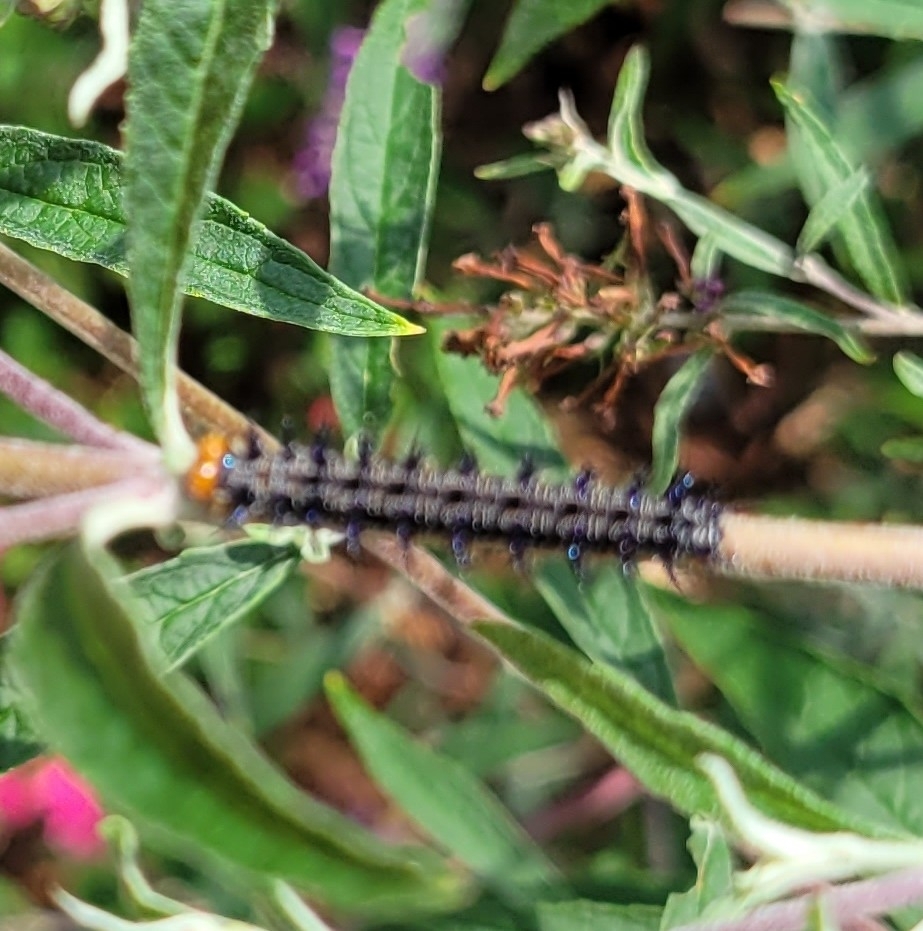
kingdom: Animalia
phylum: Arthropoda
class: Insecta
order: Lepidoptera
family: Nymphalidae
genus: Junonia
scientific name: Junonia coenia
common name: Common buckeye
